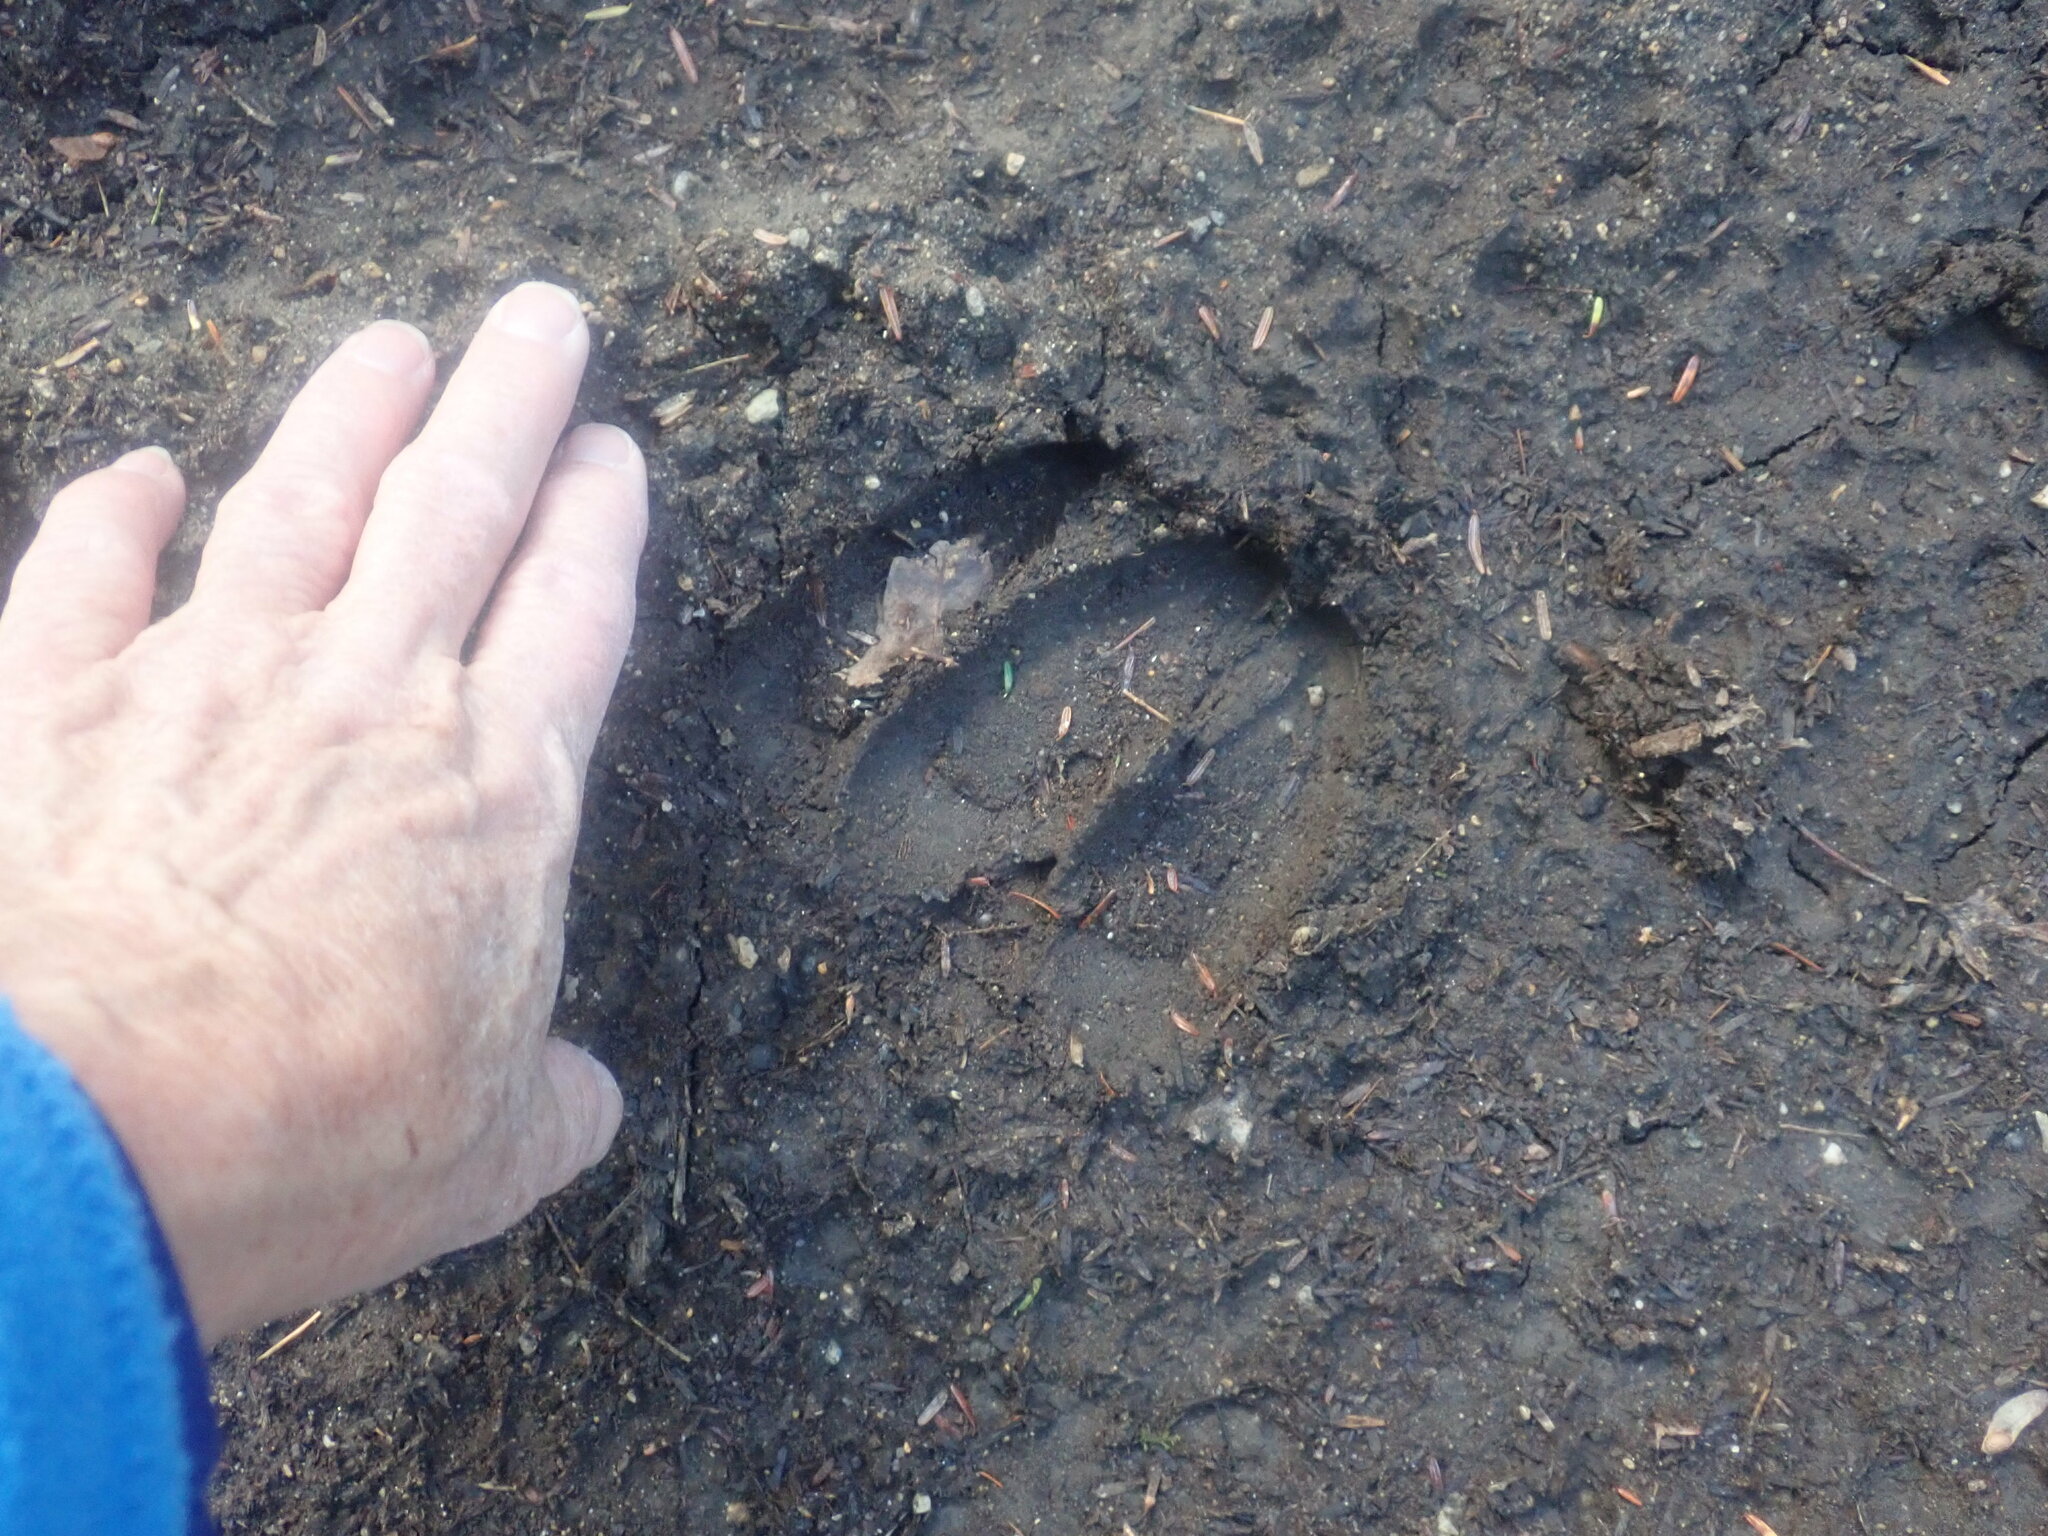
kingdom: Animalia
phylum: Chordata
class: Mammalia
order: Artiodactyla
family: Cervidae
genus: Odocoileus
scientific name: Odocoileus virginianus
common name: White-tailed deer
